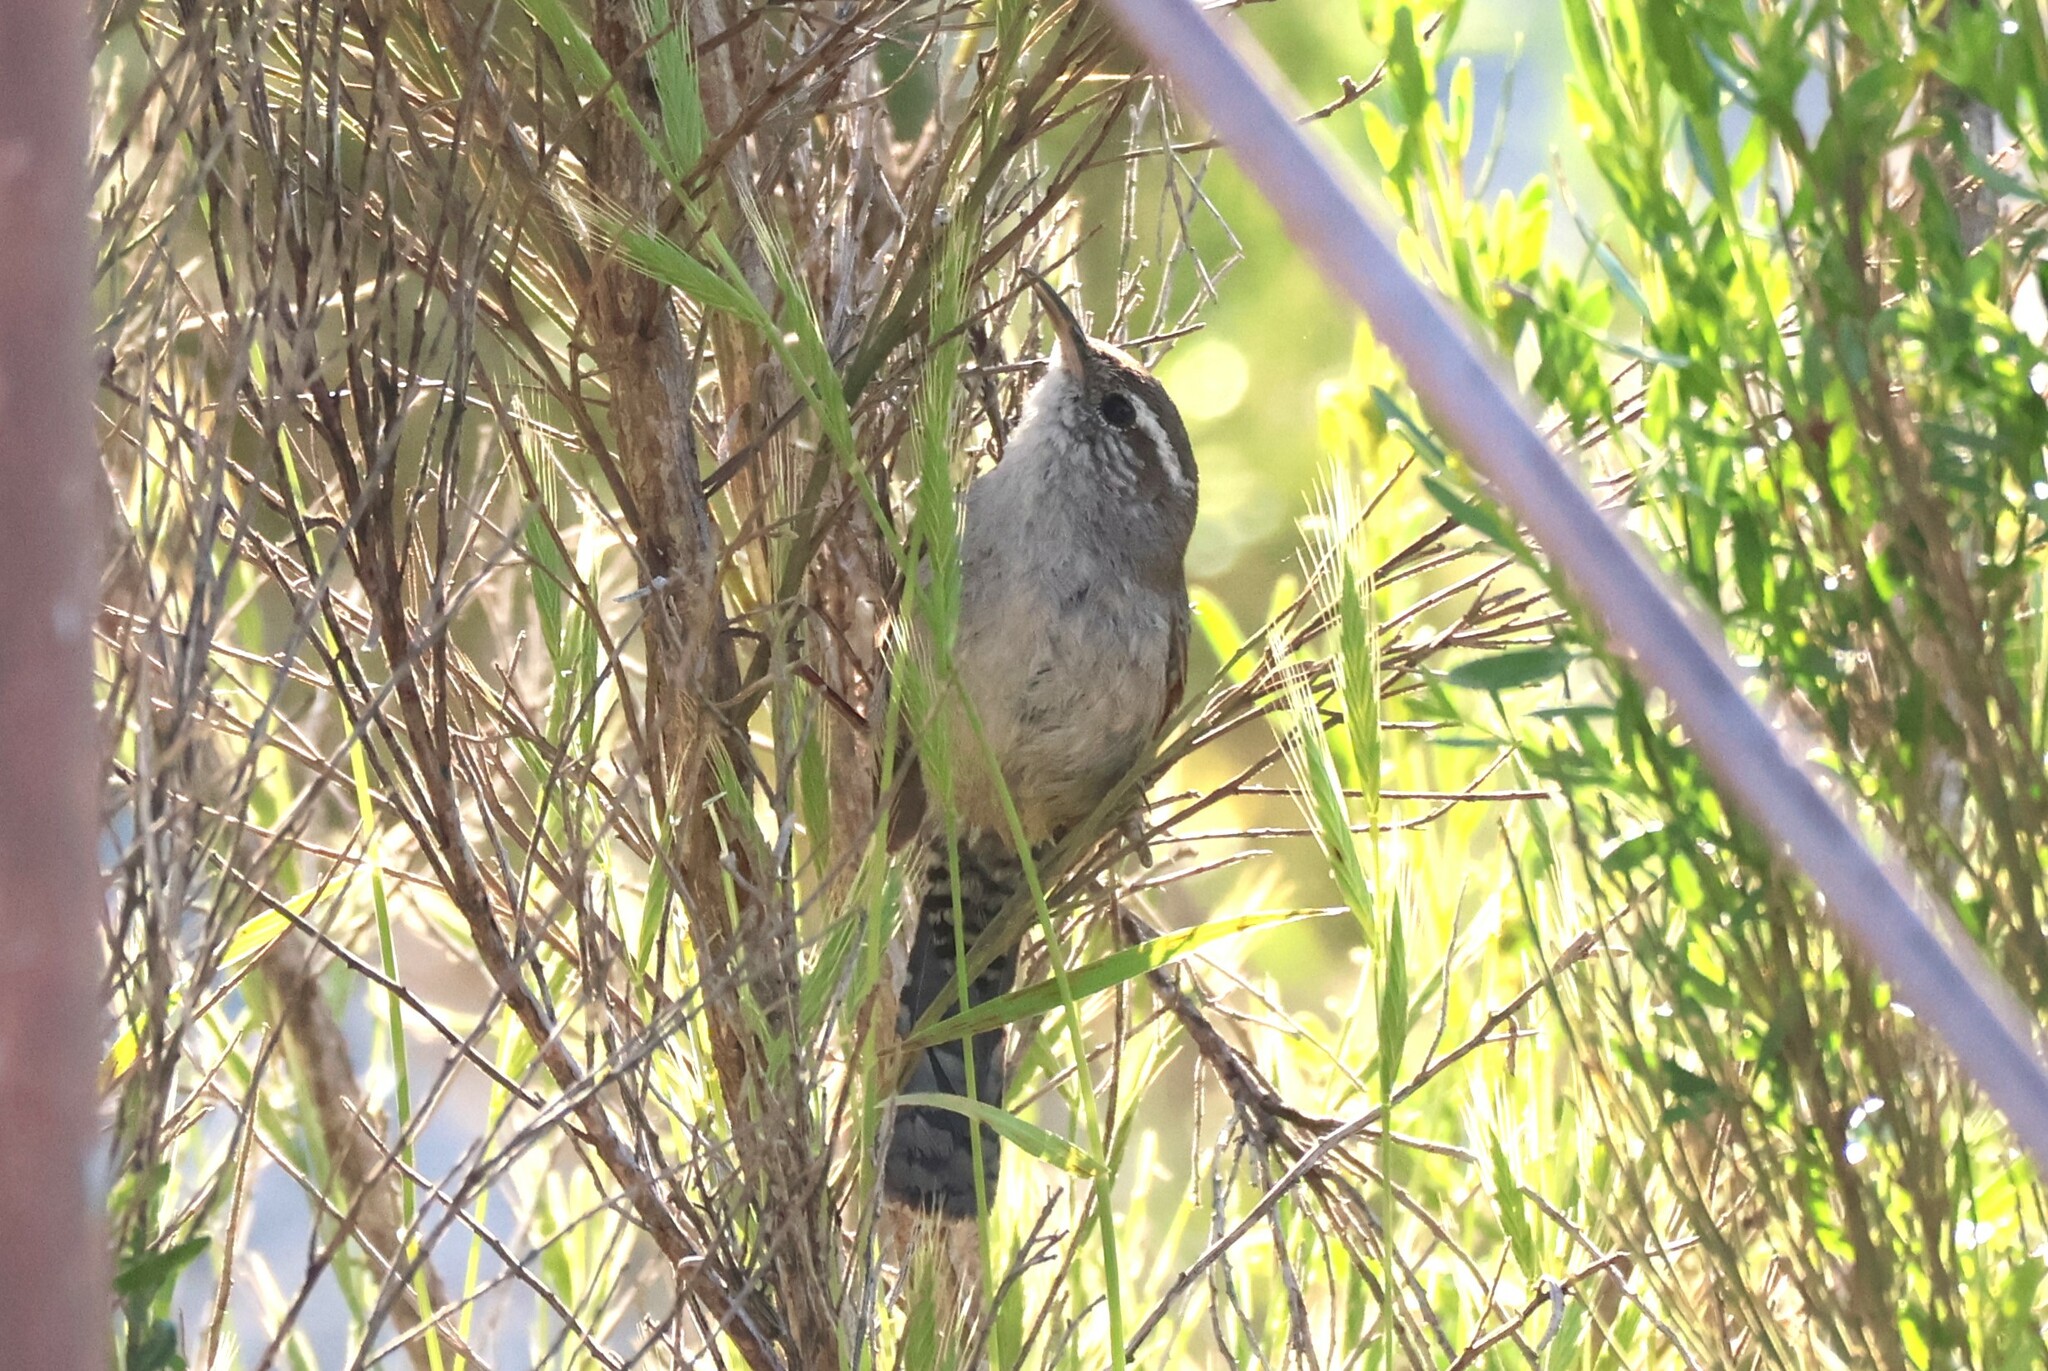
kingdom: Animalia
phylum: Chordata
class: Aves
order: Passeriformes
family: Troglodytidae
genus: Thryomanes
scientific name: Thryomanes bewickii
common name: Bewick's wren
